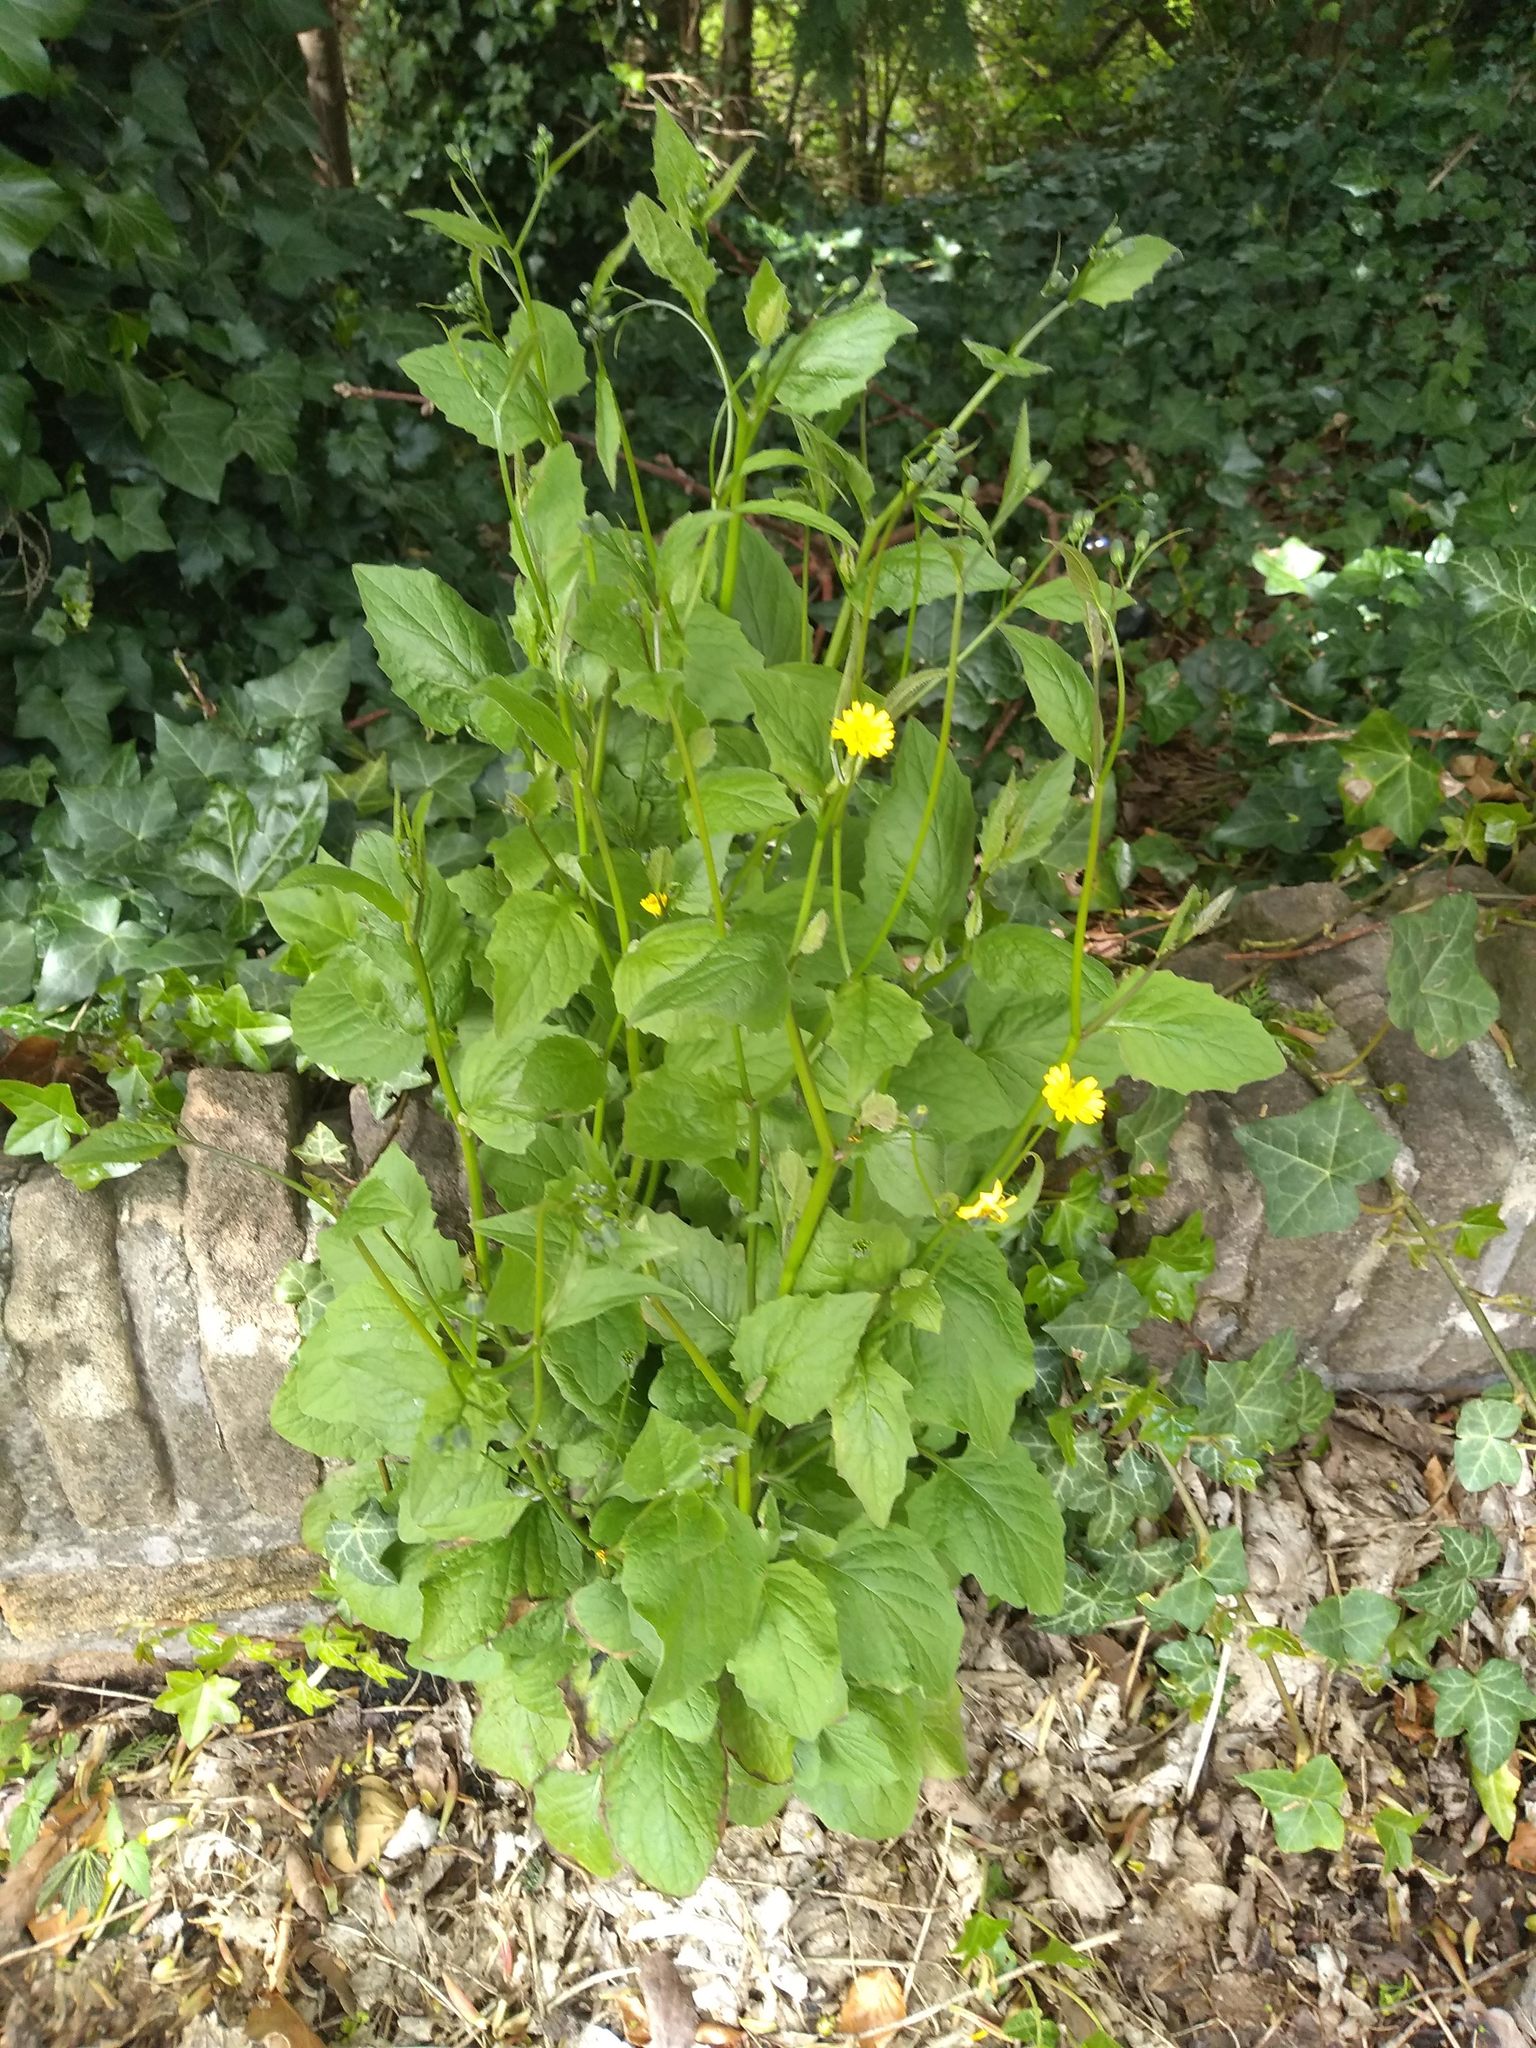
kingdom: Plantae
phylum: Tracheophyta
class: Magnoliopsida
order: Asterales
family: Asteraceae
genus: Lapsana
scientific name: Lapsana communis
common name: Nipplewort
